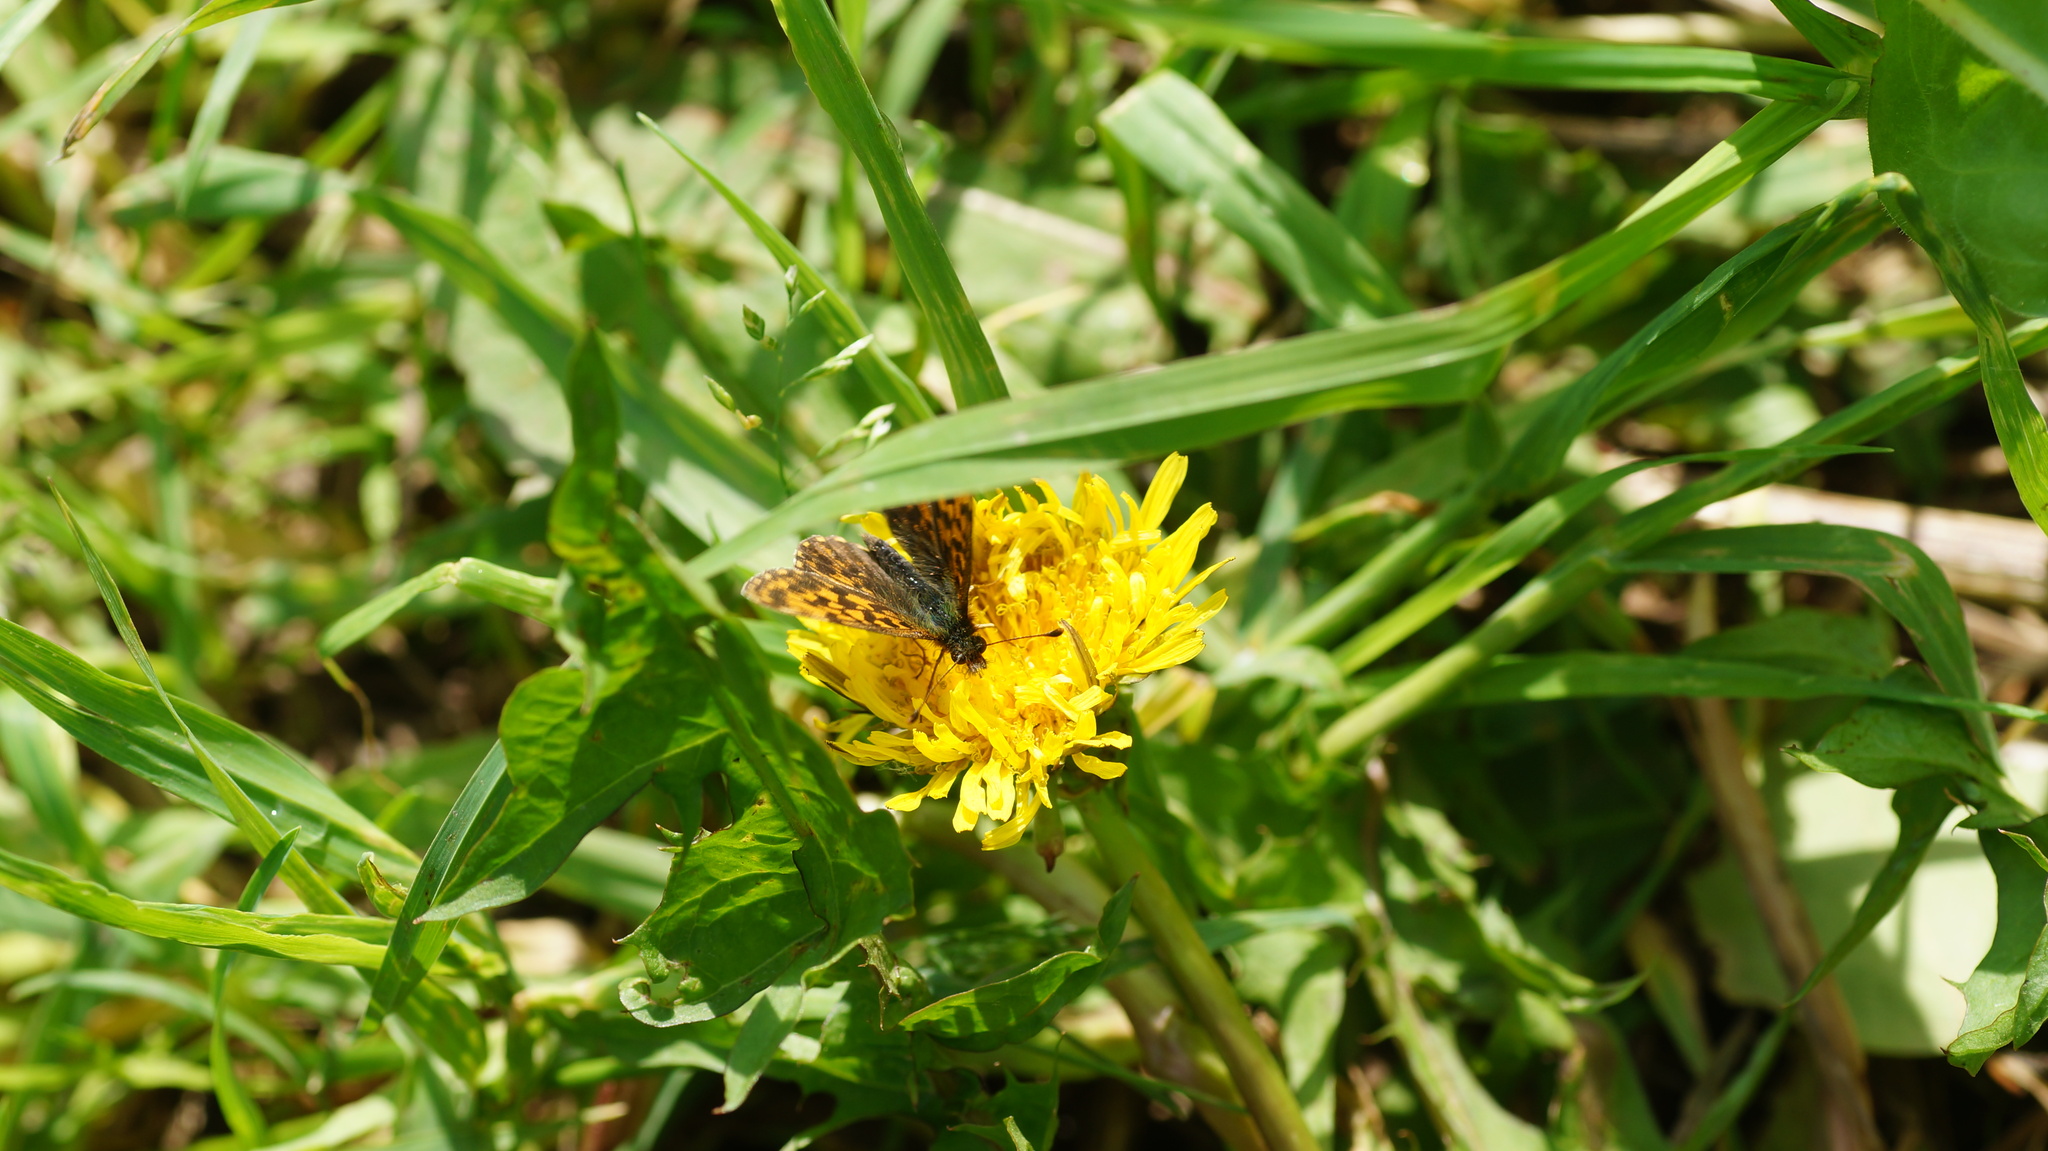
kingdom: Animalia
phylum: Arthropoda
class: Insecta
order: Lepidoptera
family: Nymphalidae
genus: Boloria
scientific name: Boloria dia
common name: Weaver's fritillary
